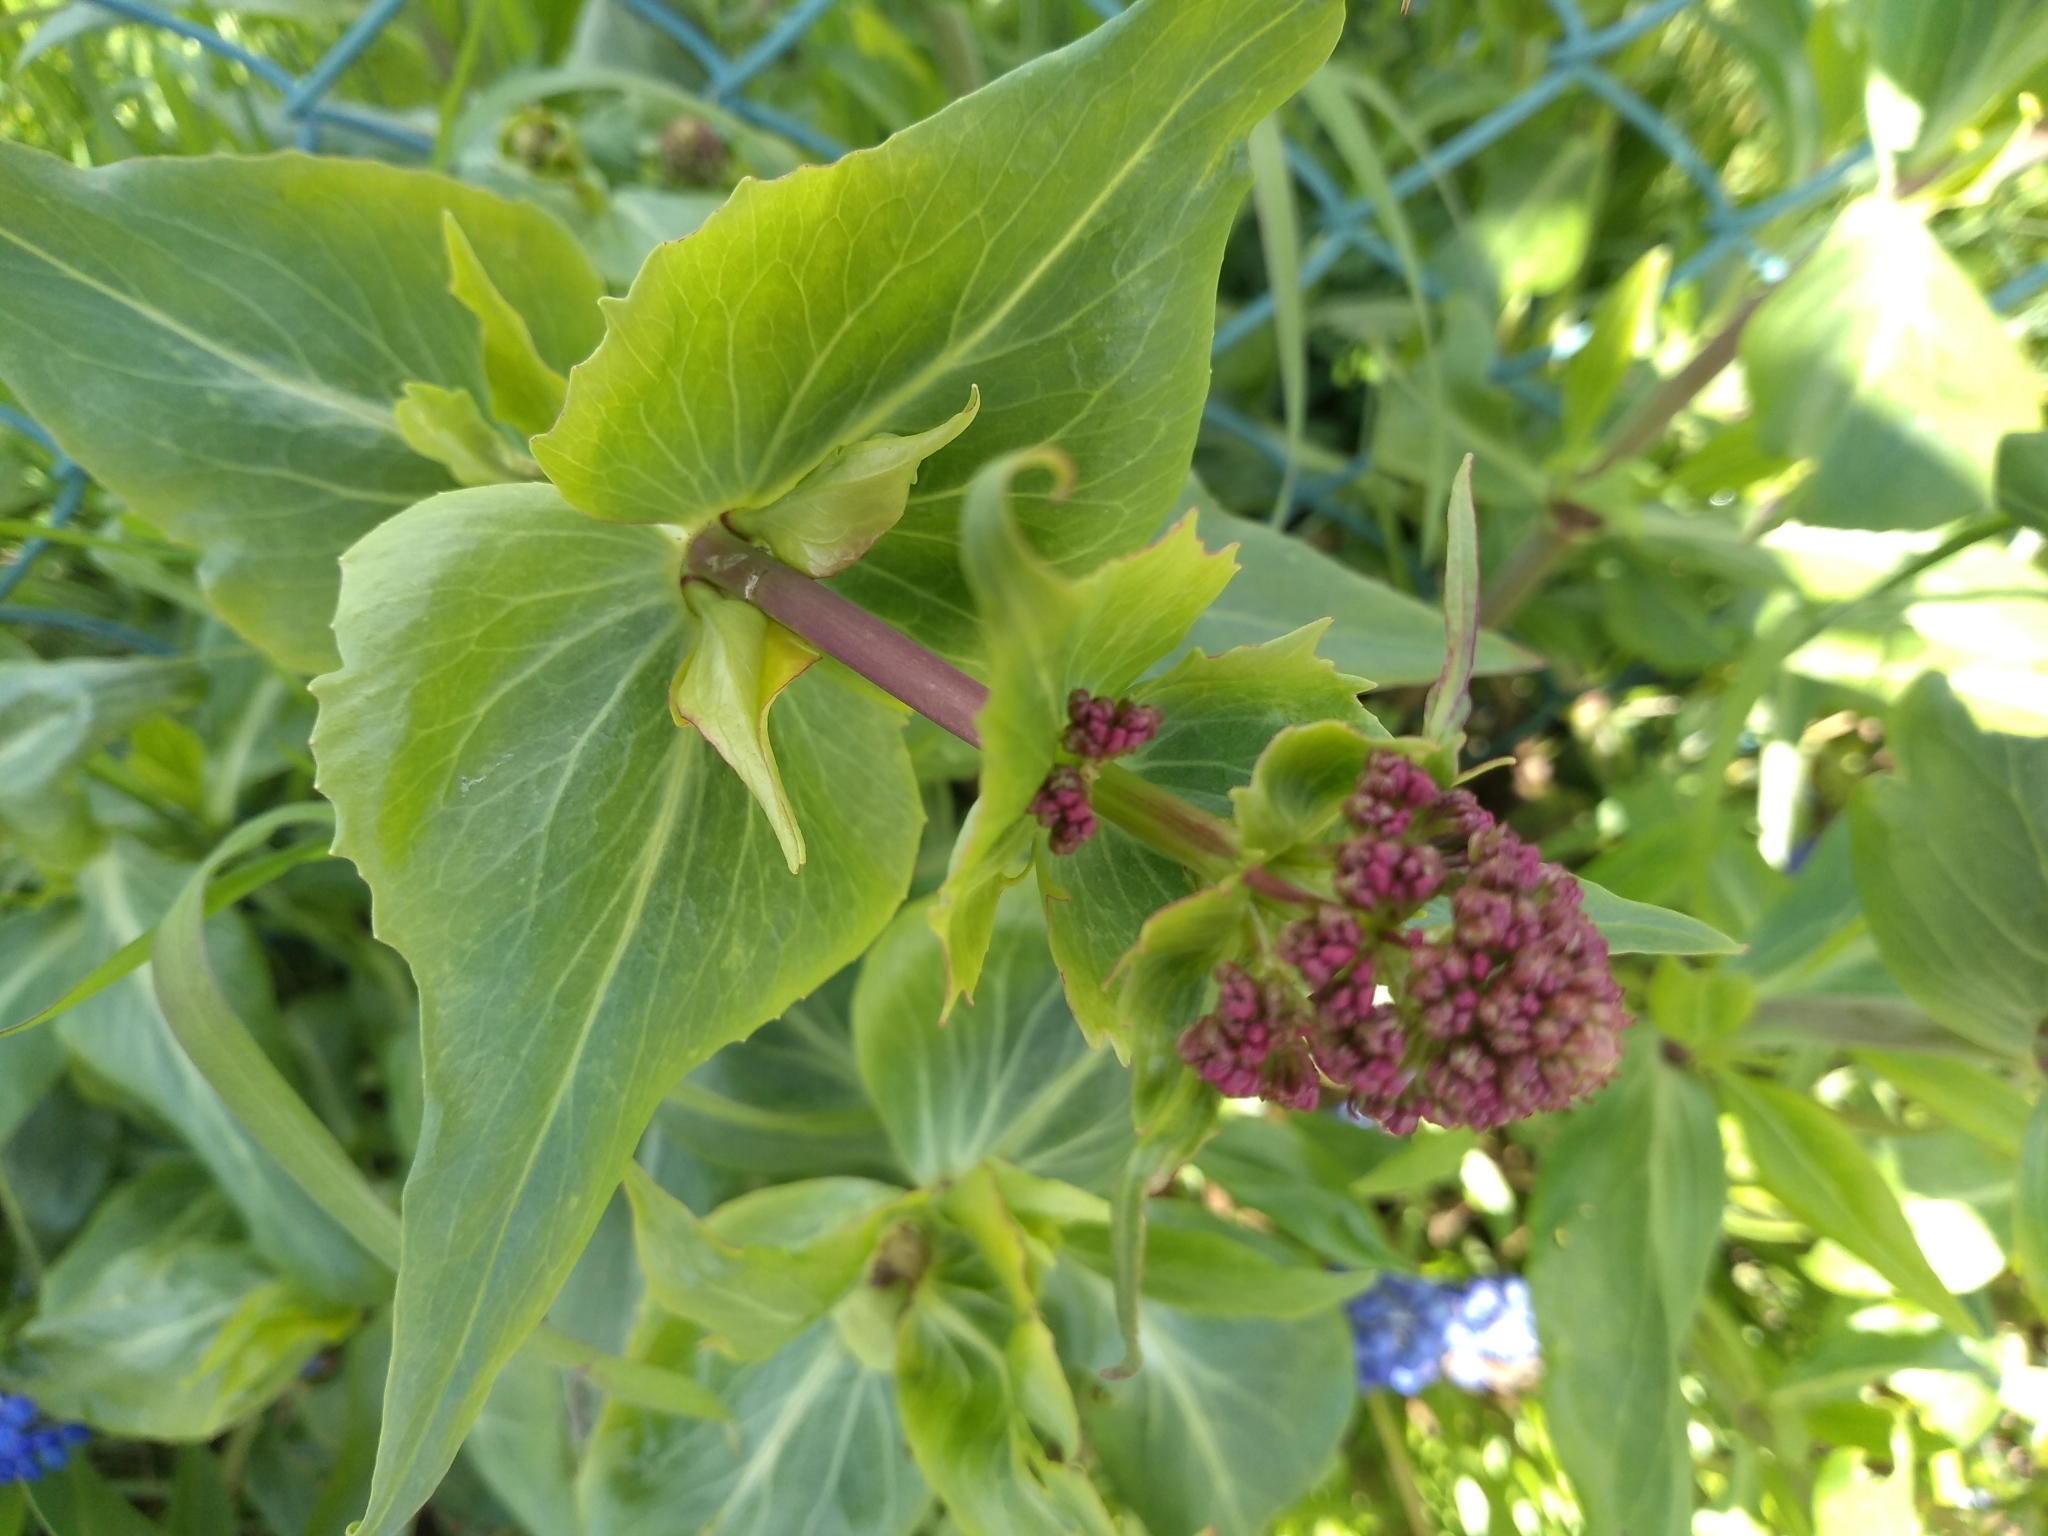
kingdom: Plantae
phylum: Tracheophyta
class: Magnoliopsida
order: Dipsacales
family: Caprifoliaceae
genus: Centranthus
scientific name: Centranthus ruber
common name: Red valerian
